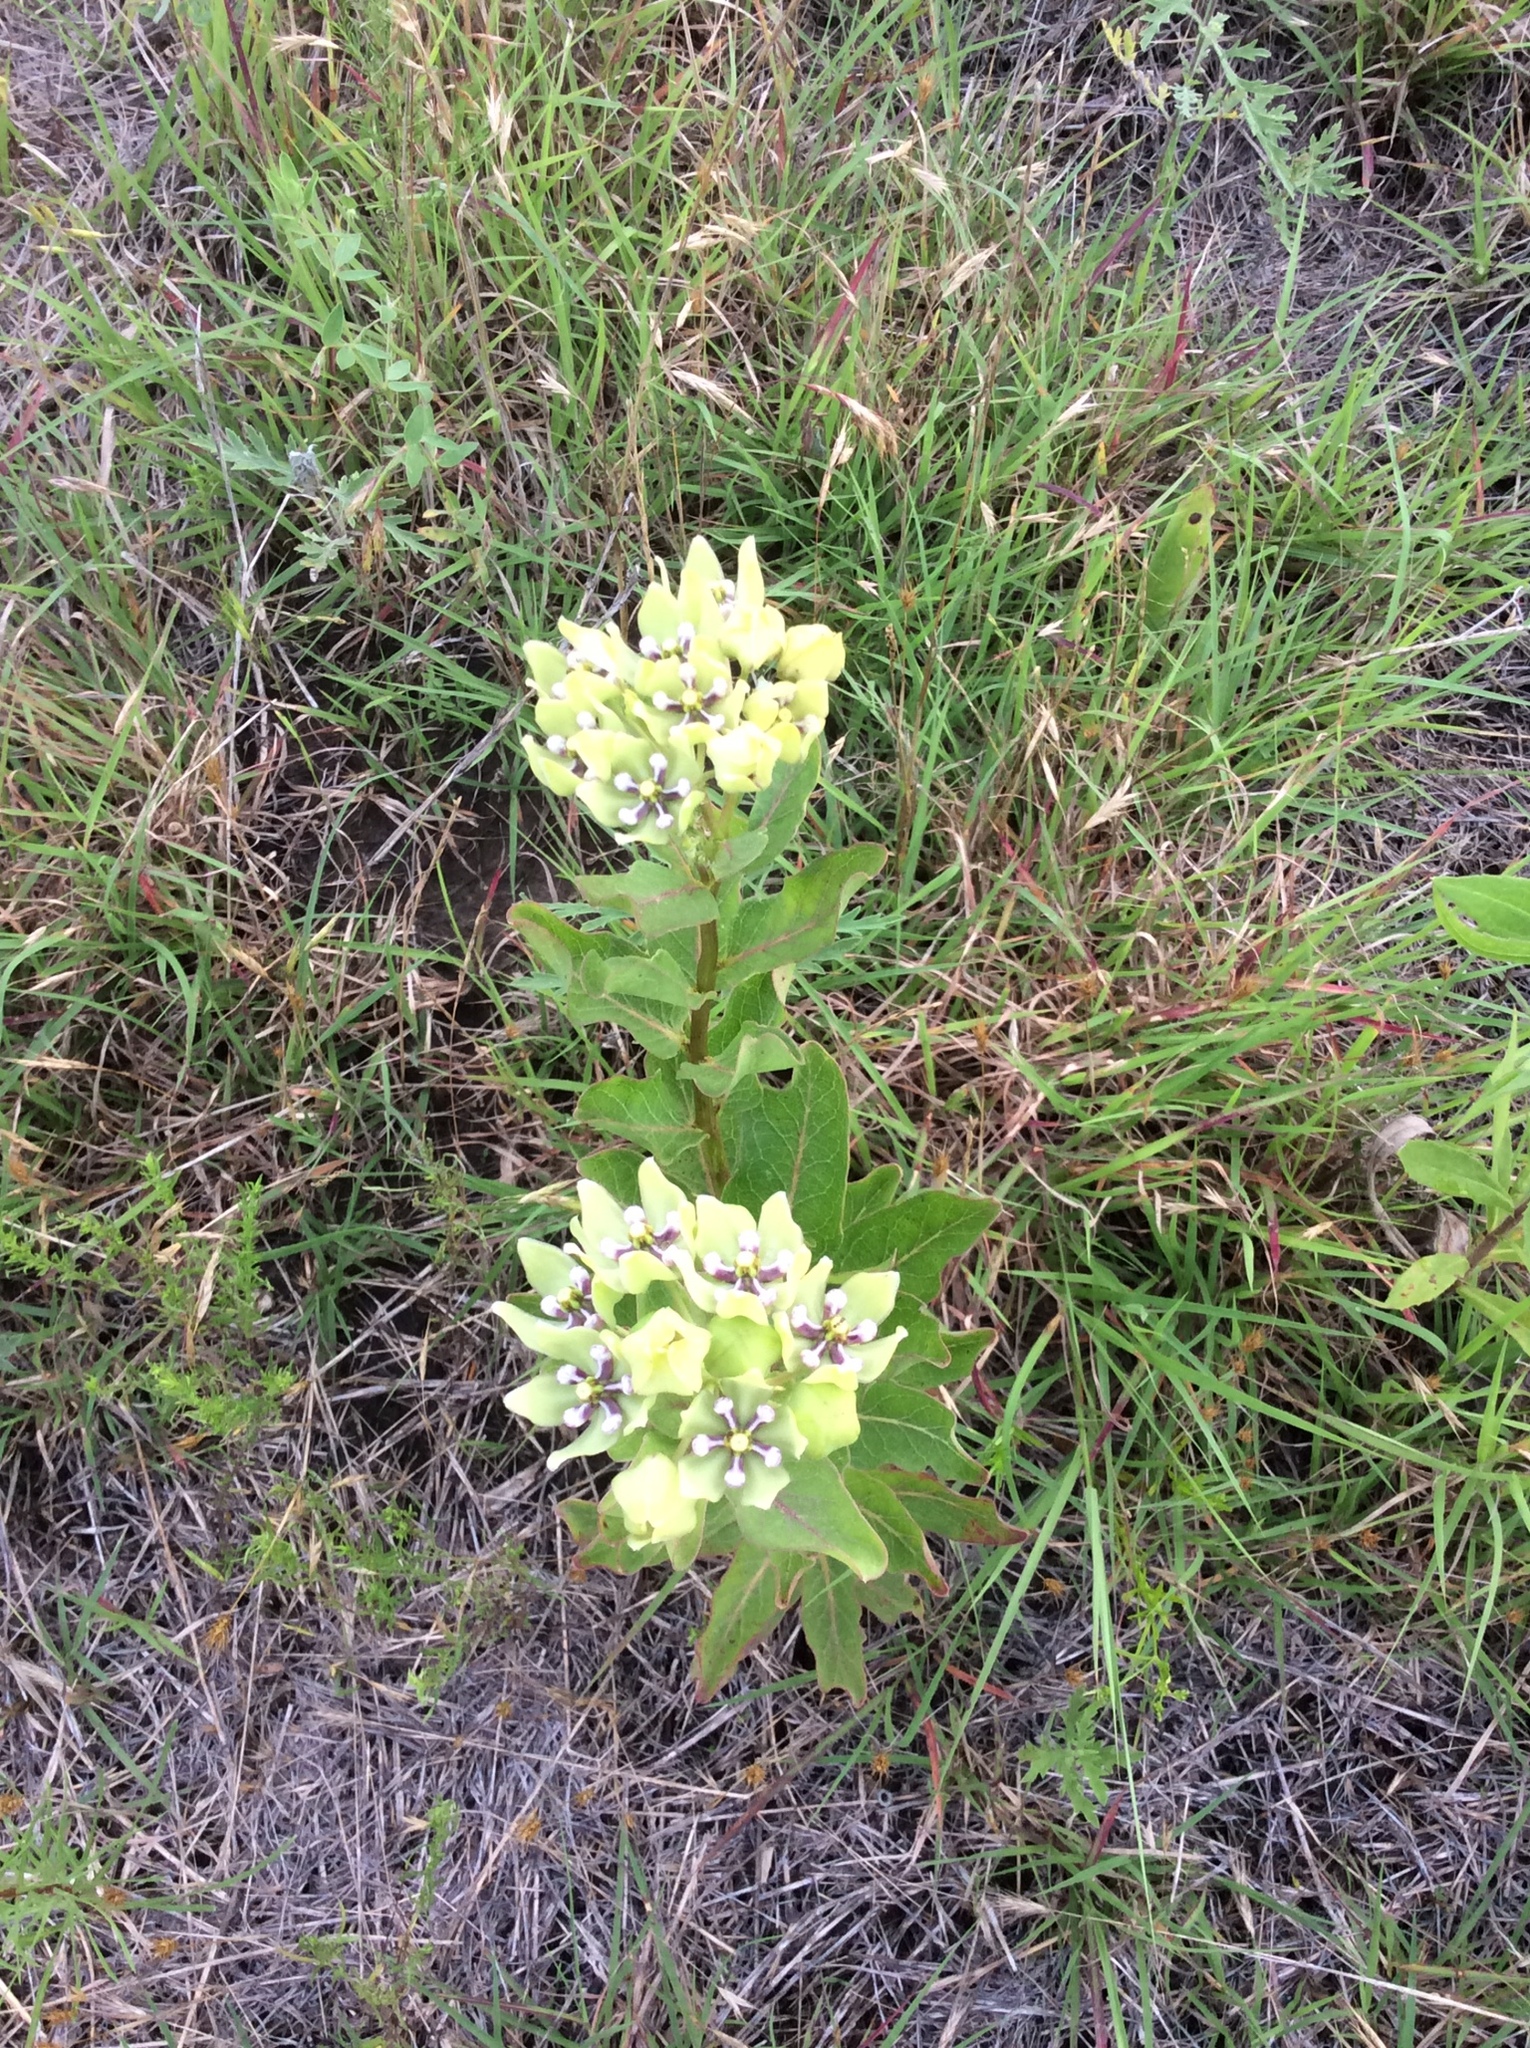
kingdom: Plantae
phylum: Tracheophyta
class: Magnoliopsida
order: Gentianales
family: Apocynaceae
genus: Asclepias
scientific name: Asclepias viridis
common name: Antelope-horns
